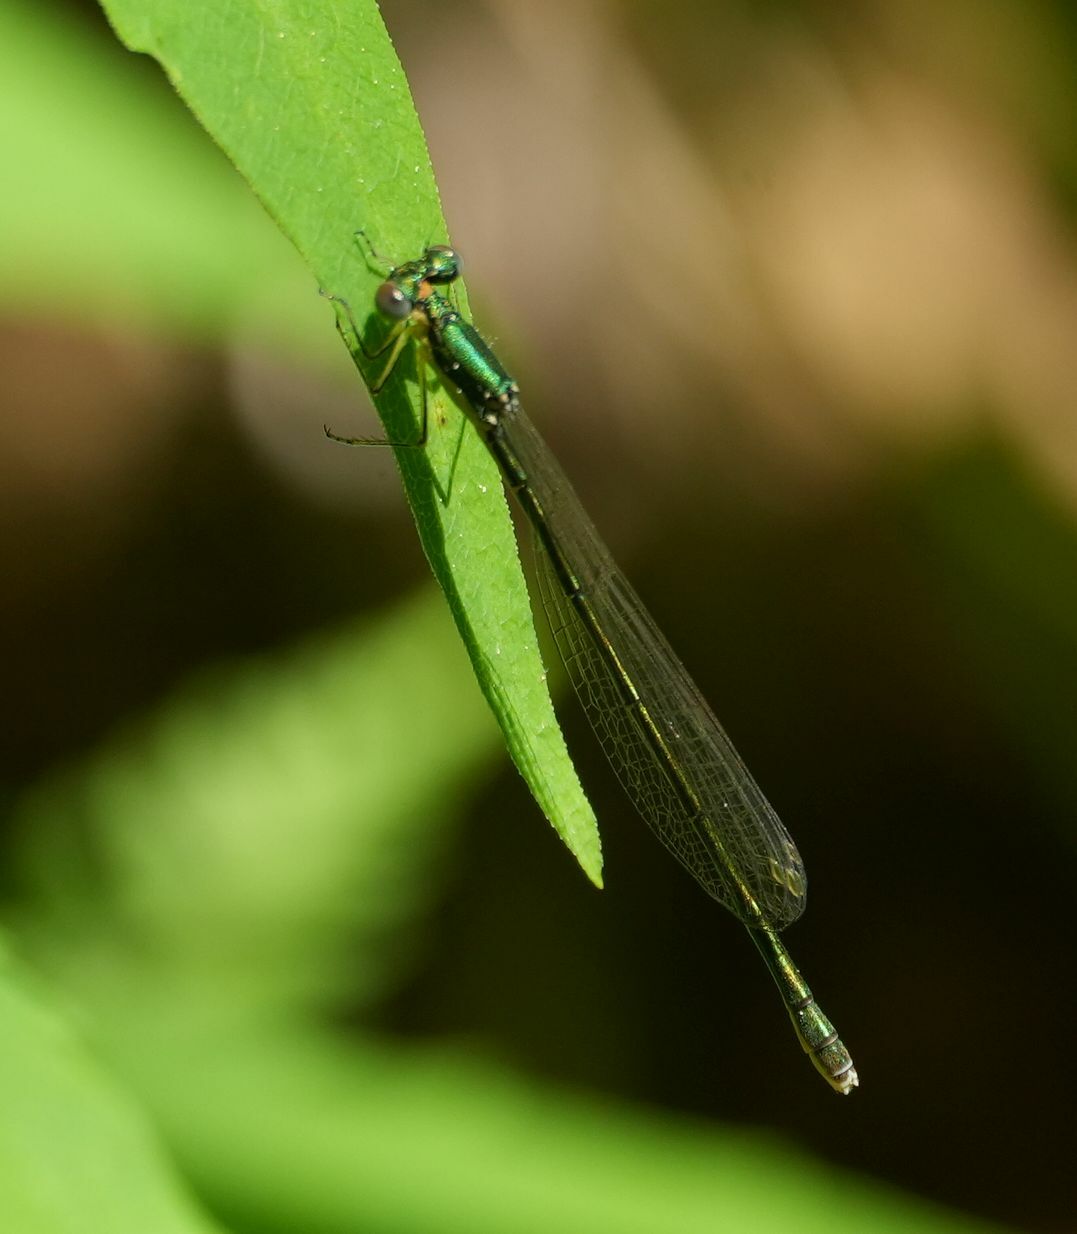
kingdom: Animalia
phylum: Arthropoda
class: Insecta
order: Odonata
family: Coenagrionidae
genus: Nehalennia
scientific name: Nehalennia irene
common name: Sedge sprite
